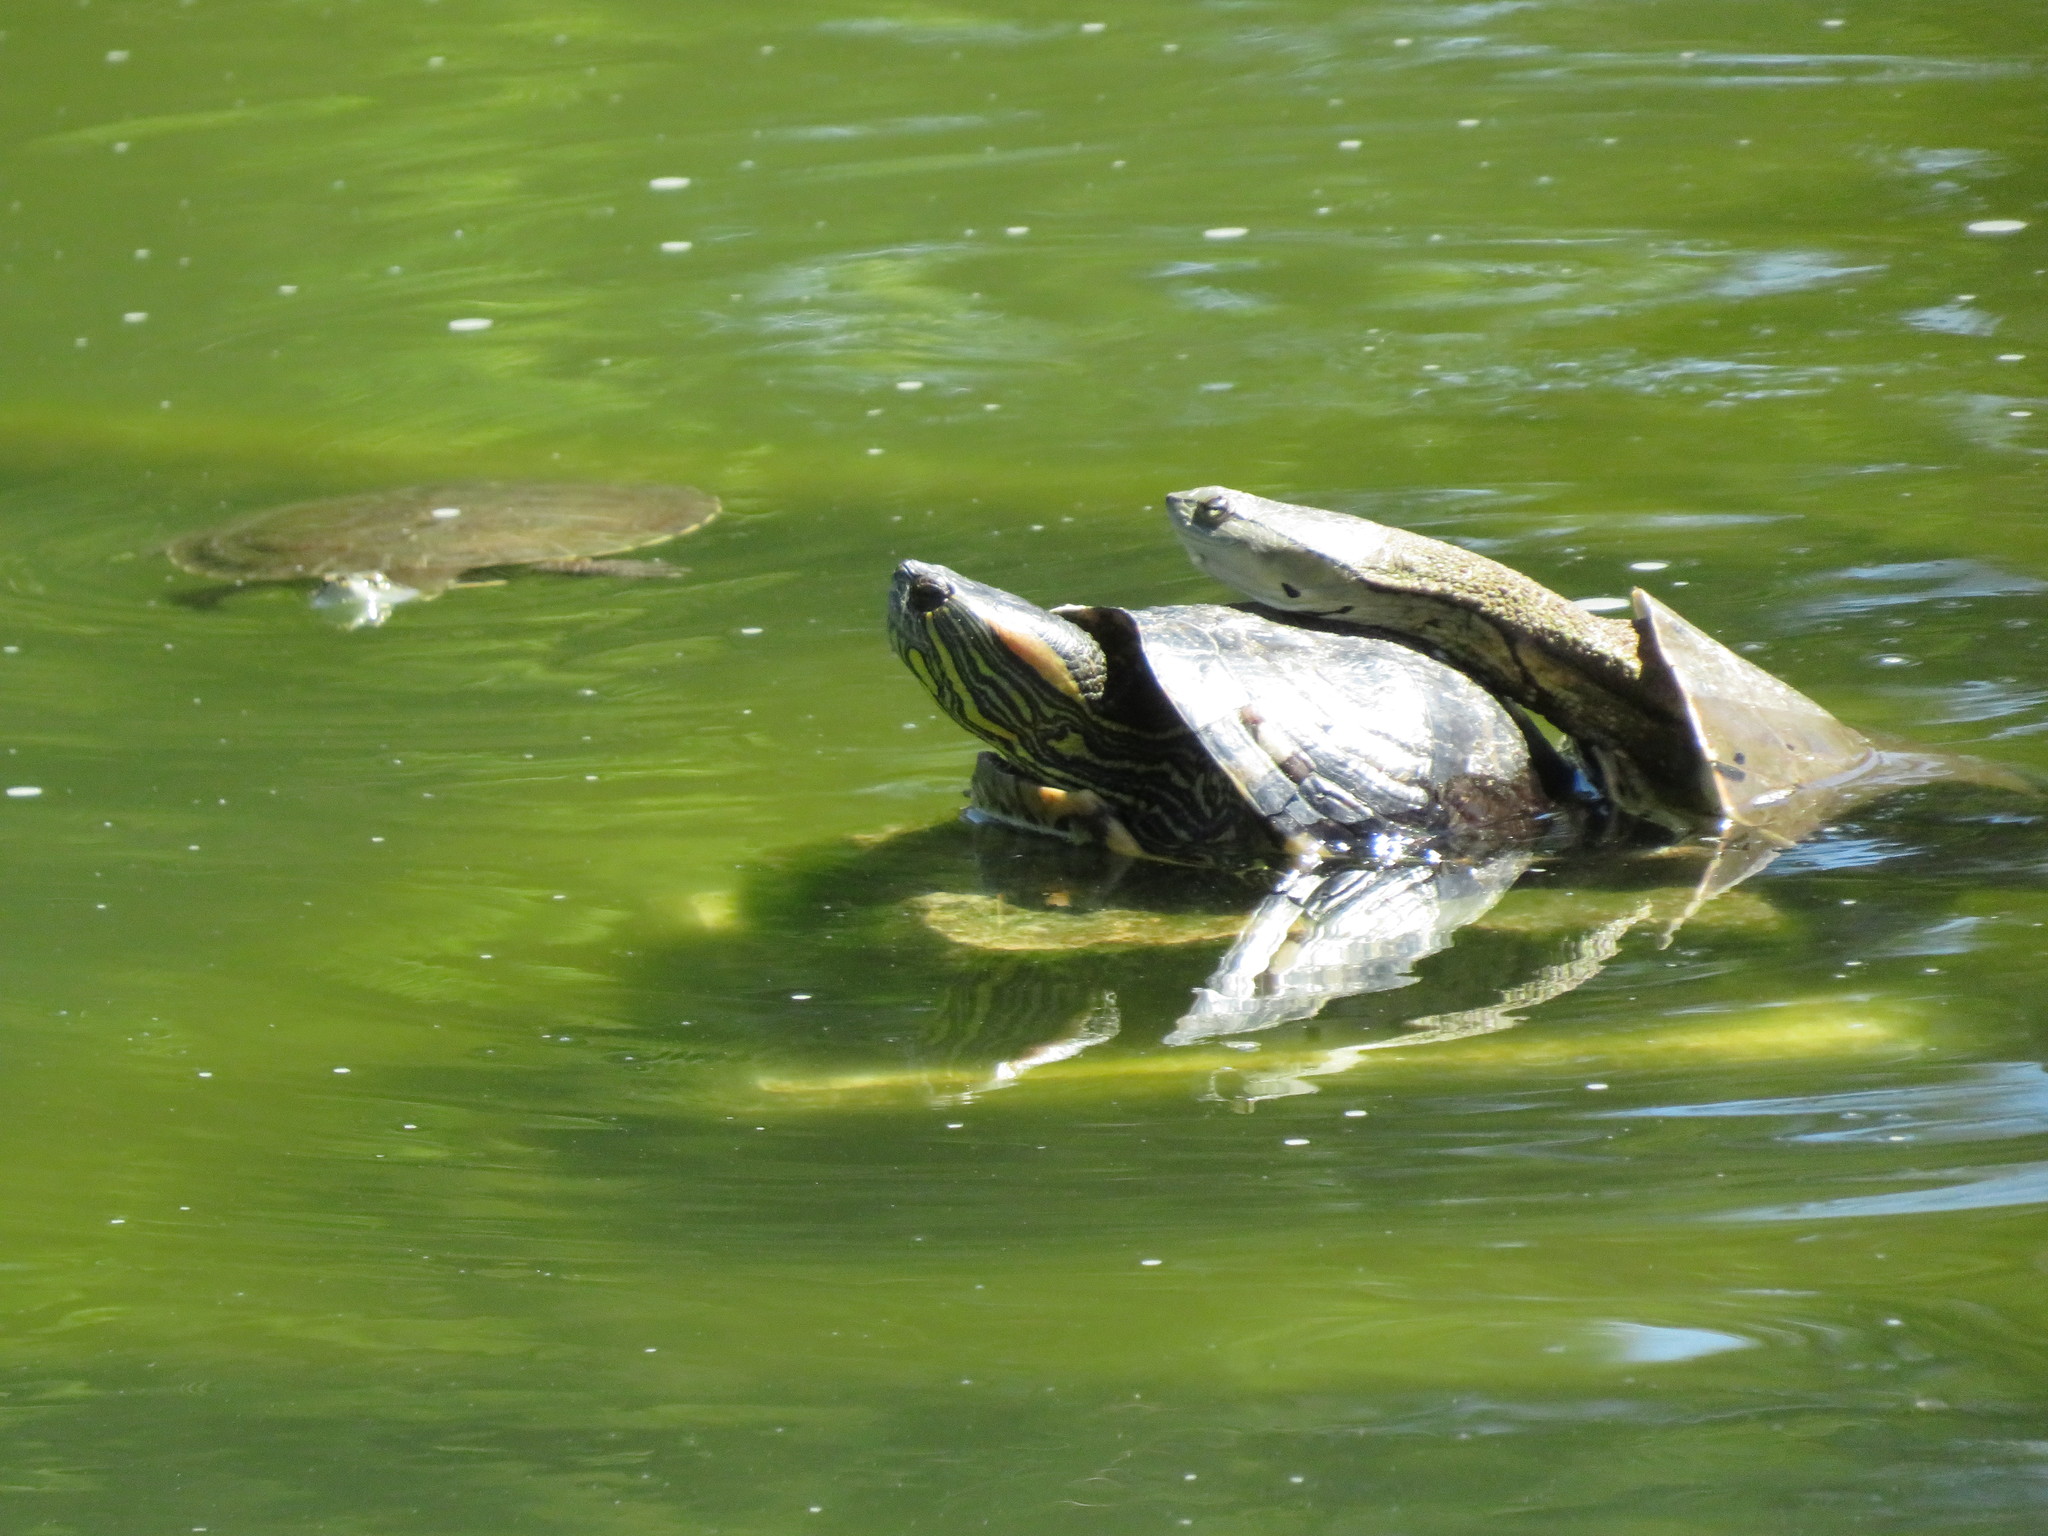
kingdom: Animalia
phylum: Chordata
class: Testudines
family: Emydidae
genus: Trachemys
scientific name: Trachemys scripta
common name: Slider
